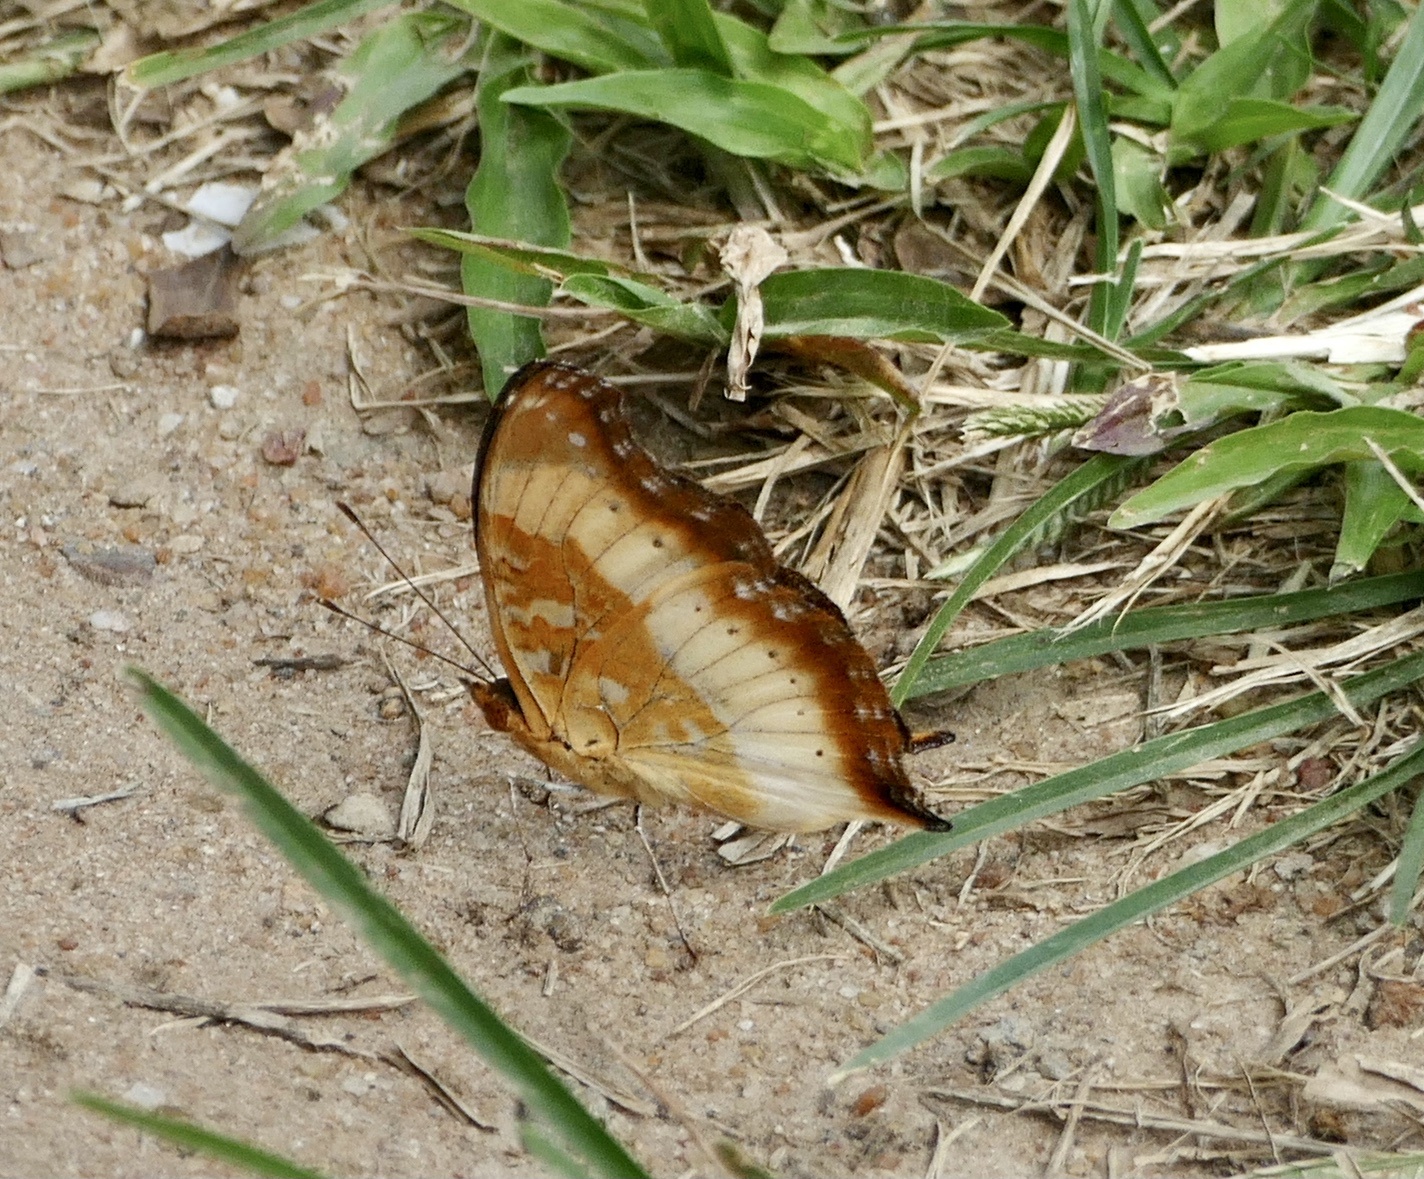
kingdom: Animalia
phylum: Arthropoda
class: Insecta
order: Lepidoptera
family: Nymphalidae
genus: Precis
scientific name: Precis pelarga
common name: Fashion commodore
